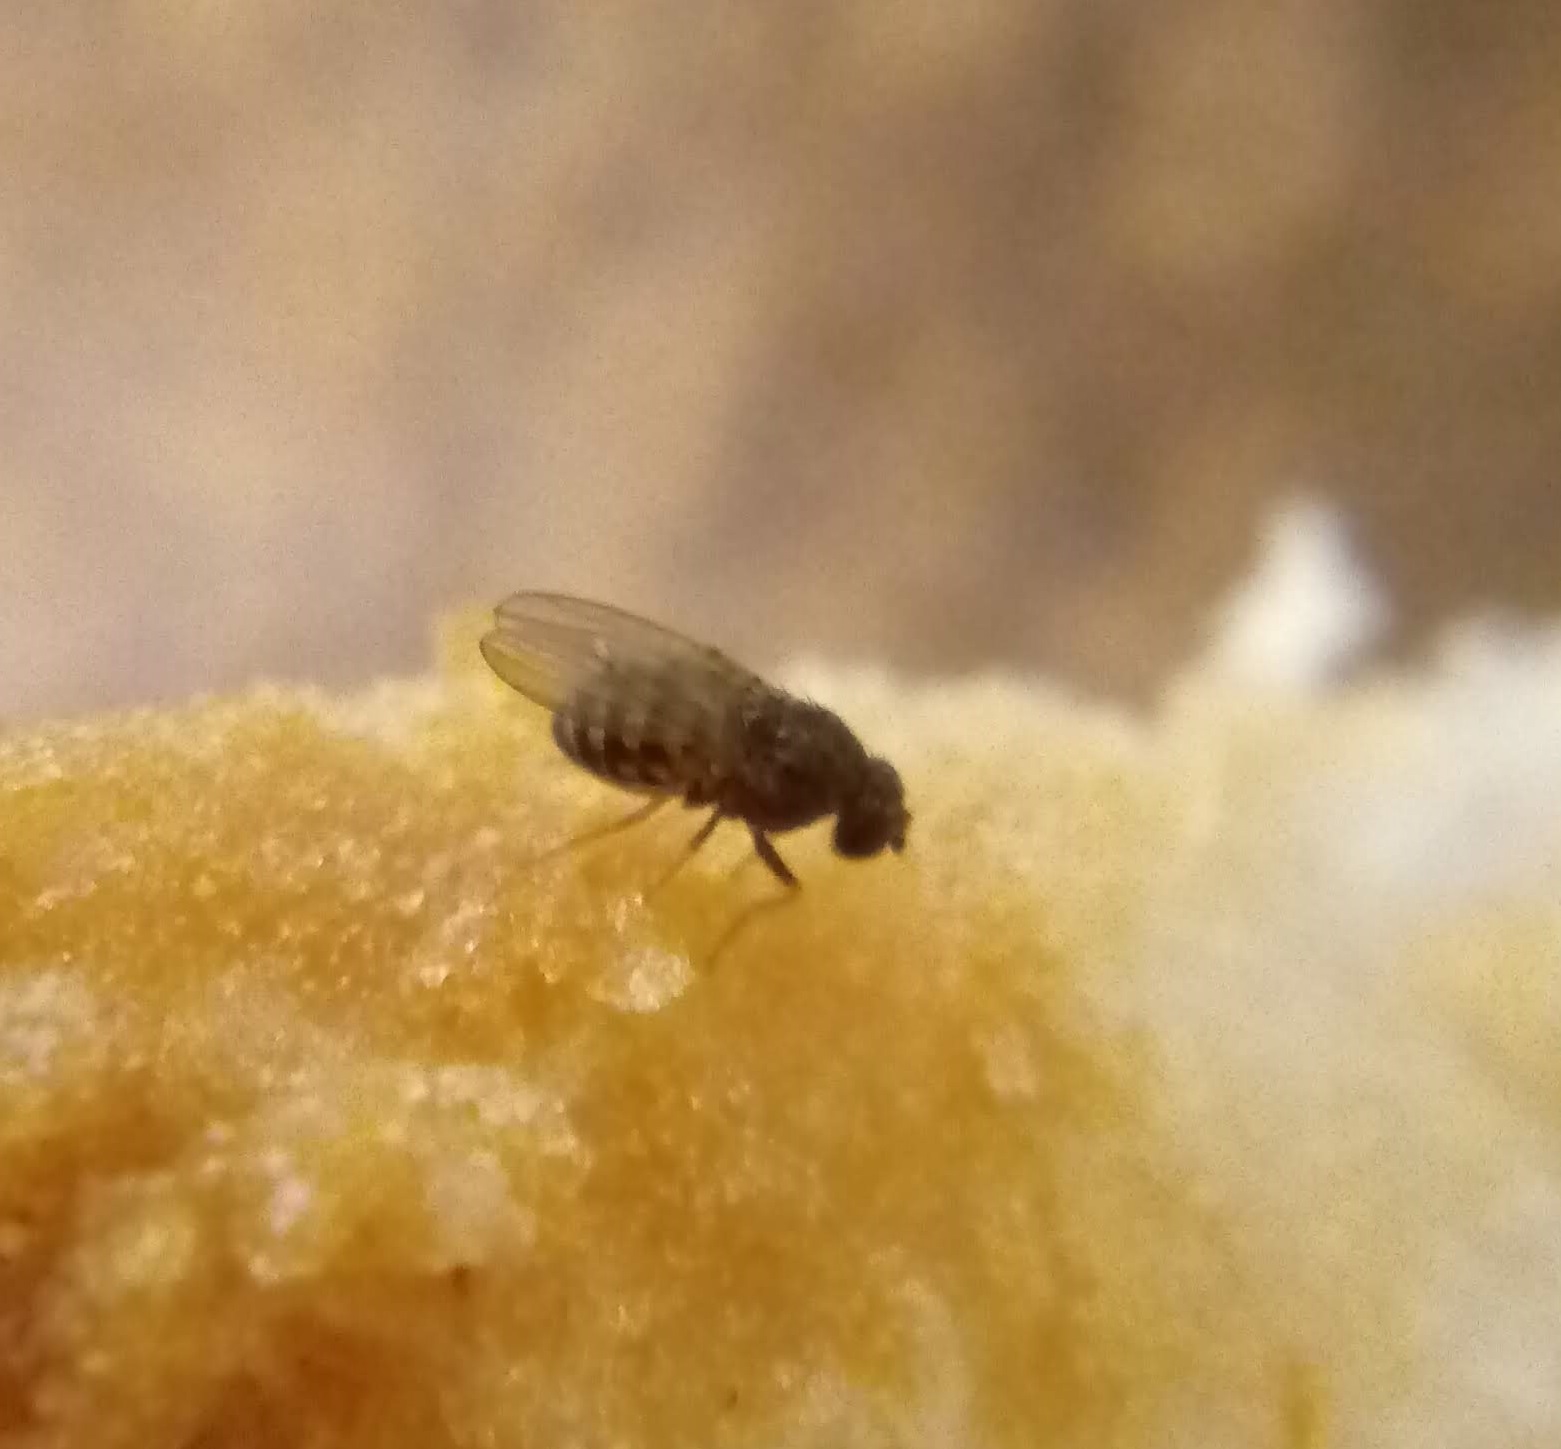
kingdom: Animalia
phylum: Arthropoda
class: Insecta
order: Diptera
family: Drosophilidae
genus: Drosophila
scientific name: Drosophila repleta
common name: Pomace fly
